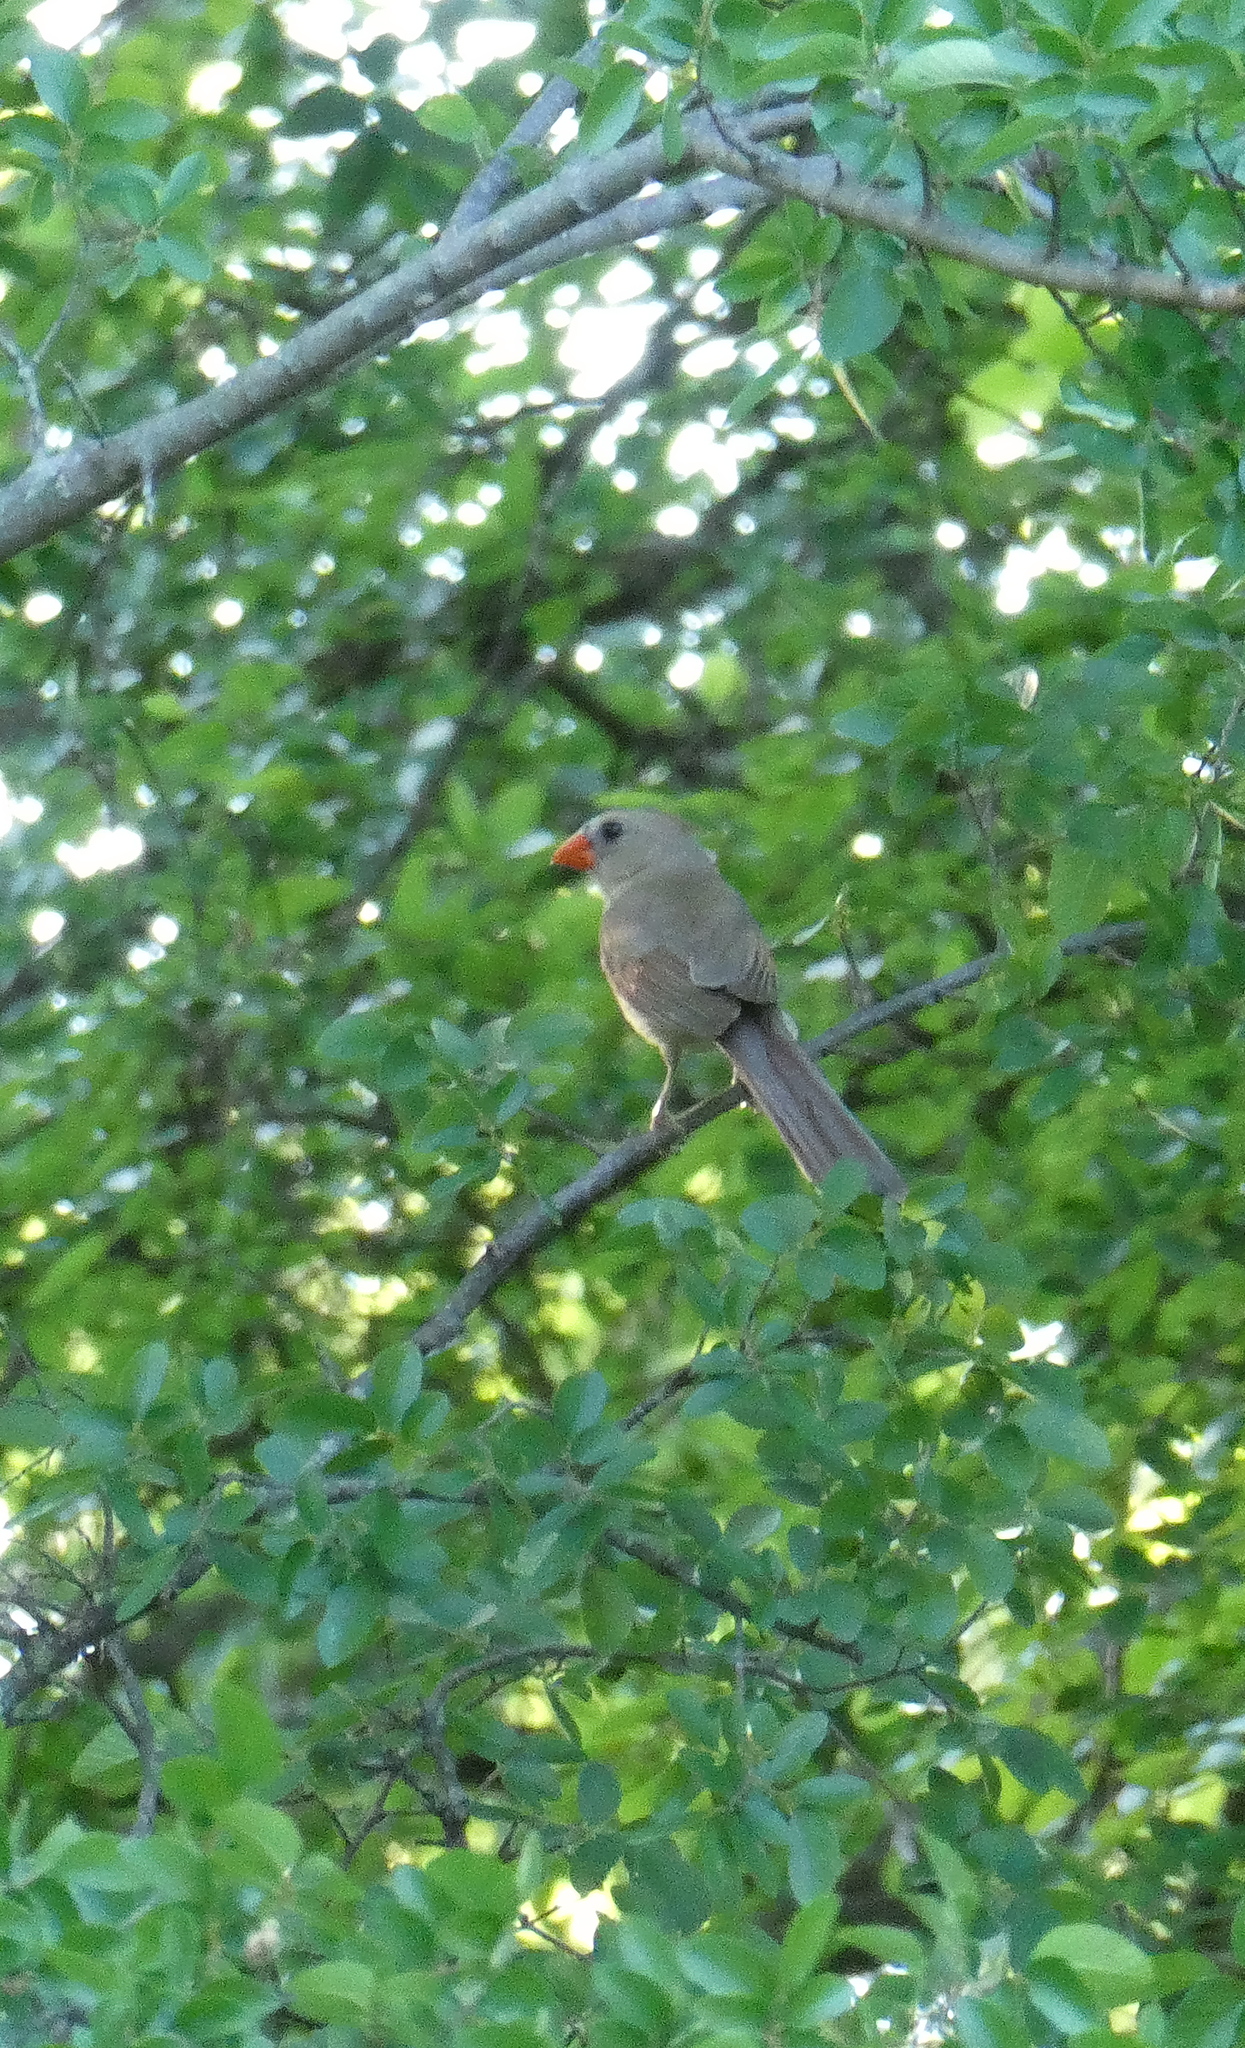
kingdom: Animalia
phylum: Chordata
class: Aves
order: Passeriformes
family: Cardinalidae
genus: Cardinalis
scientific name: Cardinalis cardinalis
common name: Northern cardinal
